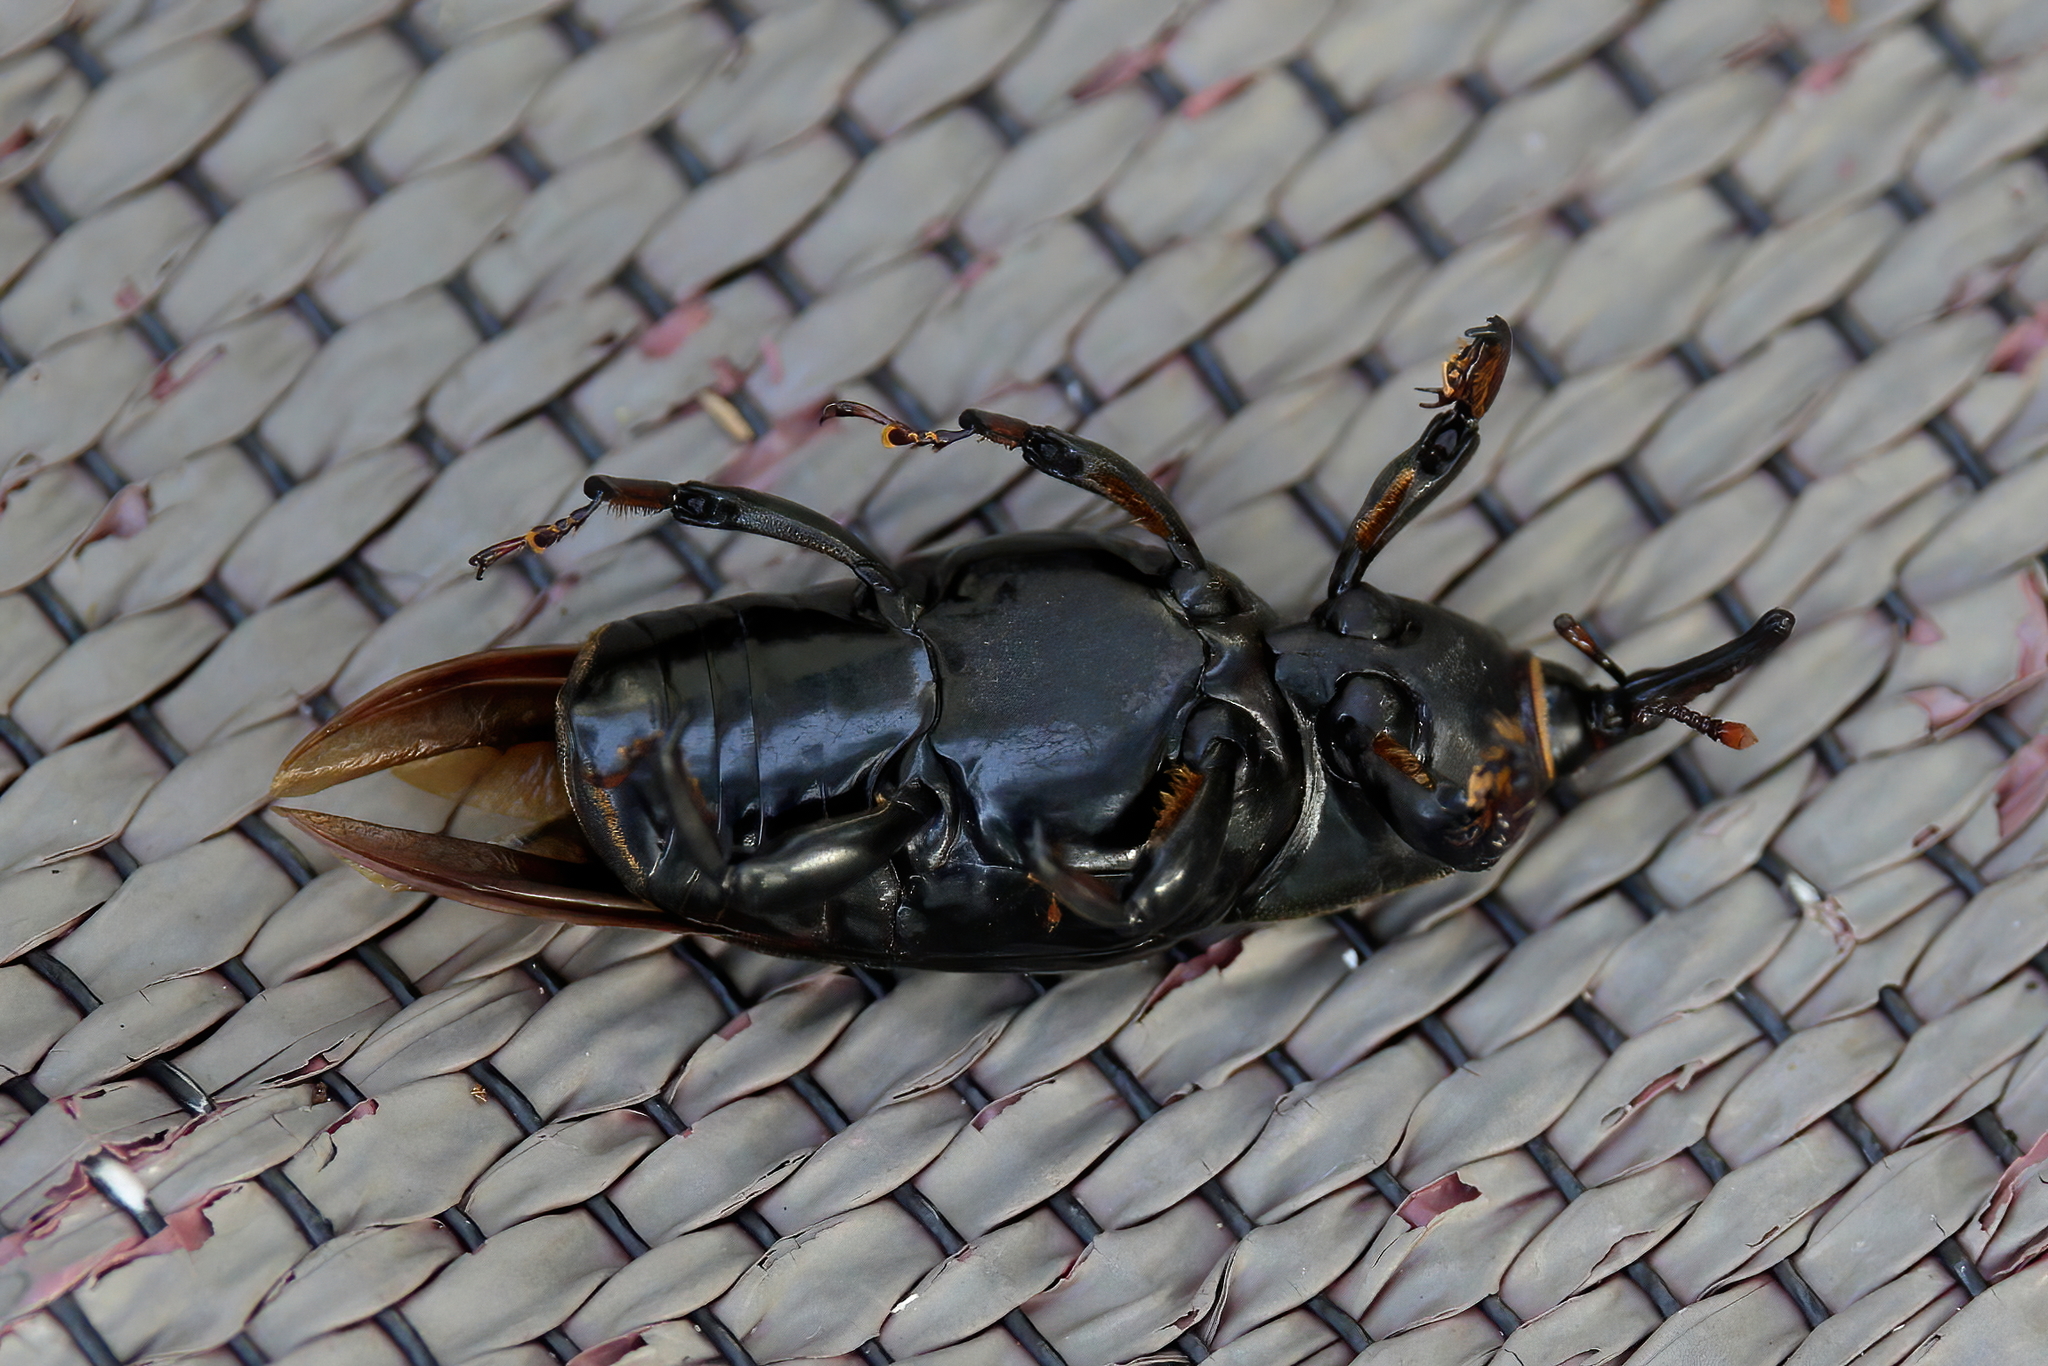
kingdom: Animalia
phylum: Arthropoda
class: Insecta
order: Coleoptera
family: Dryophthoridae
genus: Rhynchophorus
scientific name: Rhynchophorus cruentatus
